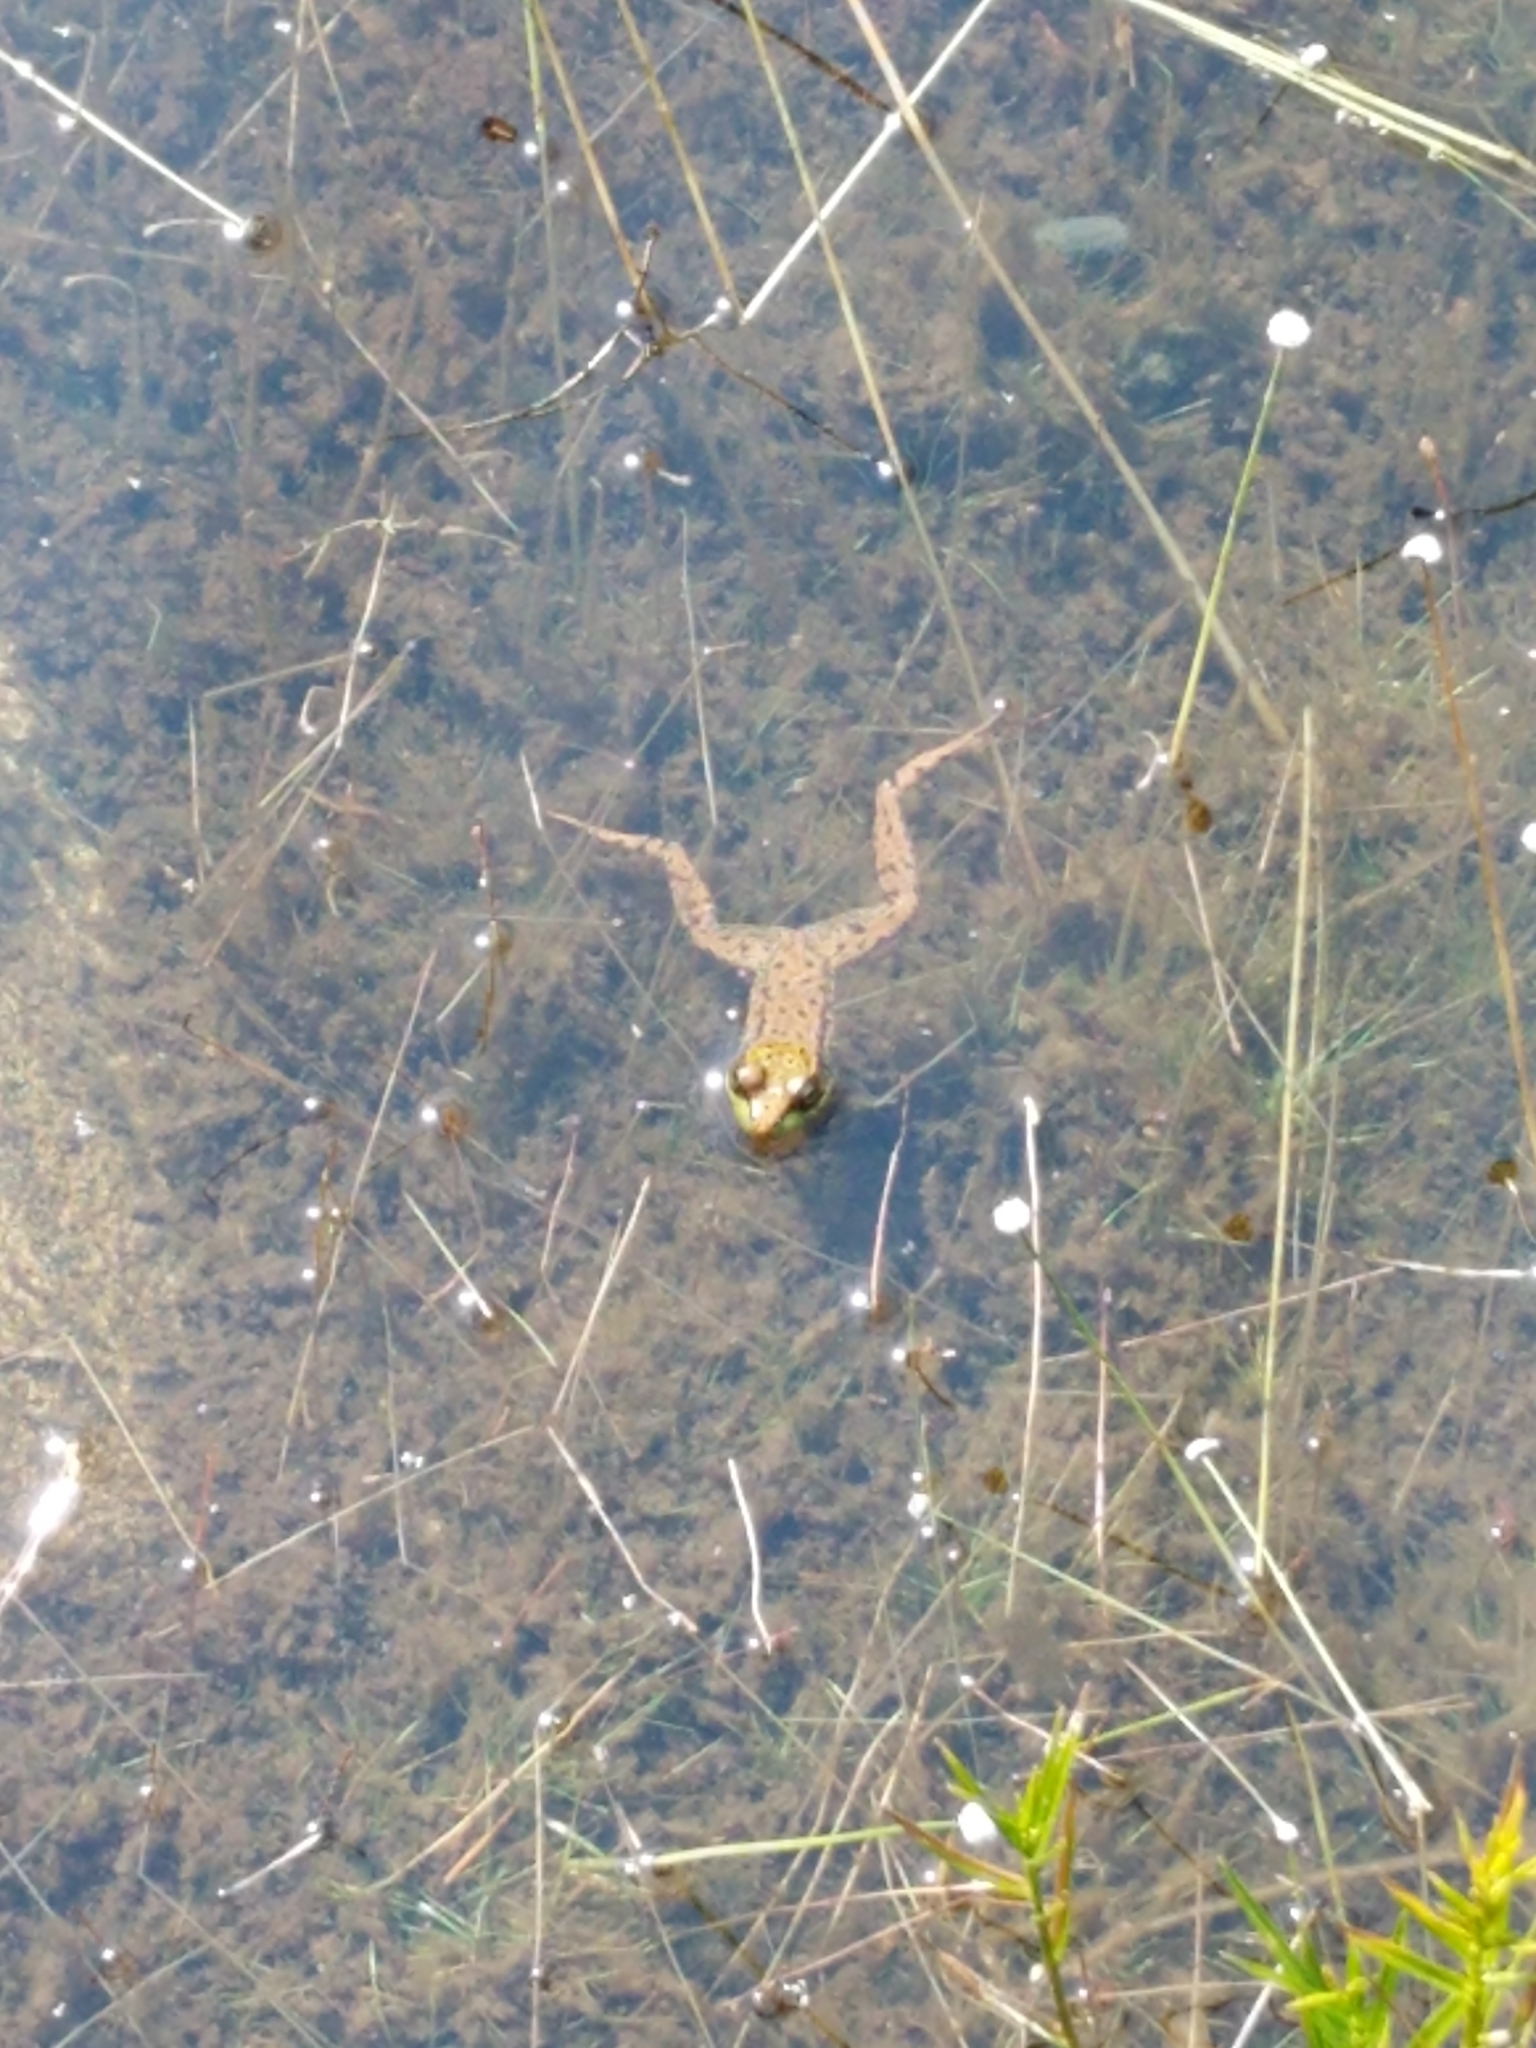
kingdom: Animalia
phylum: Chordata
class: Amphibia
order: Anura
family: Ranidae
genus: Lithobates
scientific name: Lithobates clamitans
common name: Green frog
